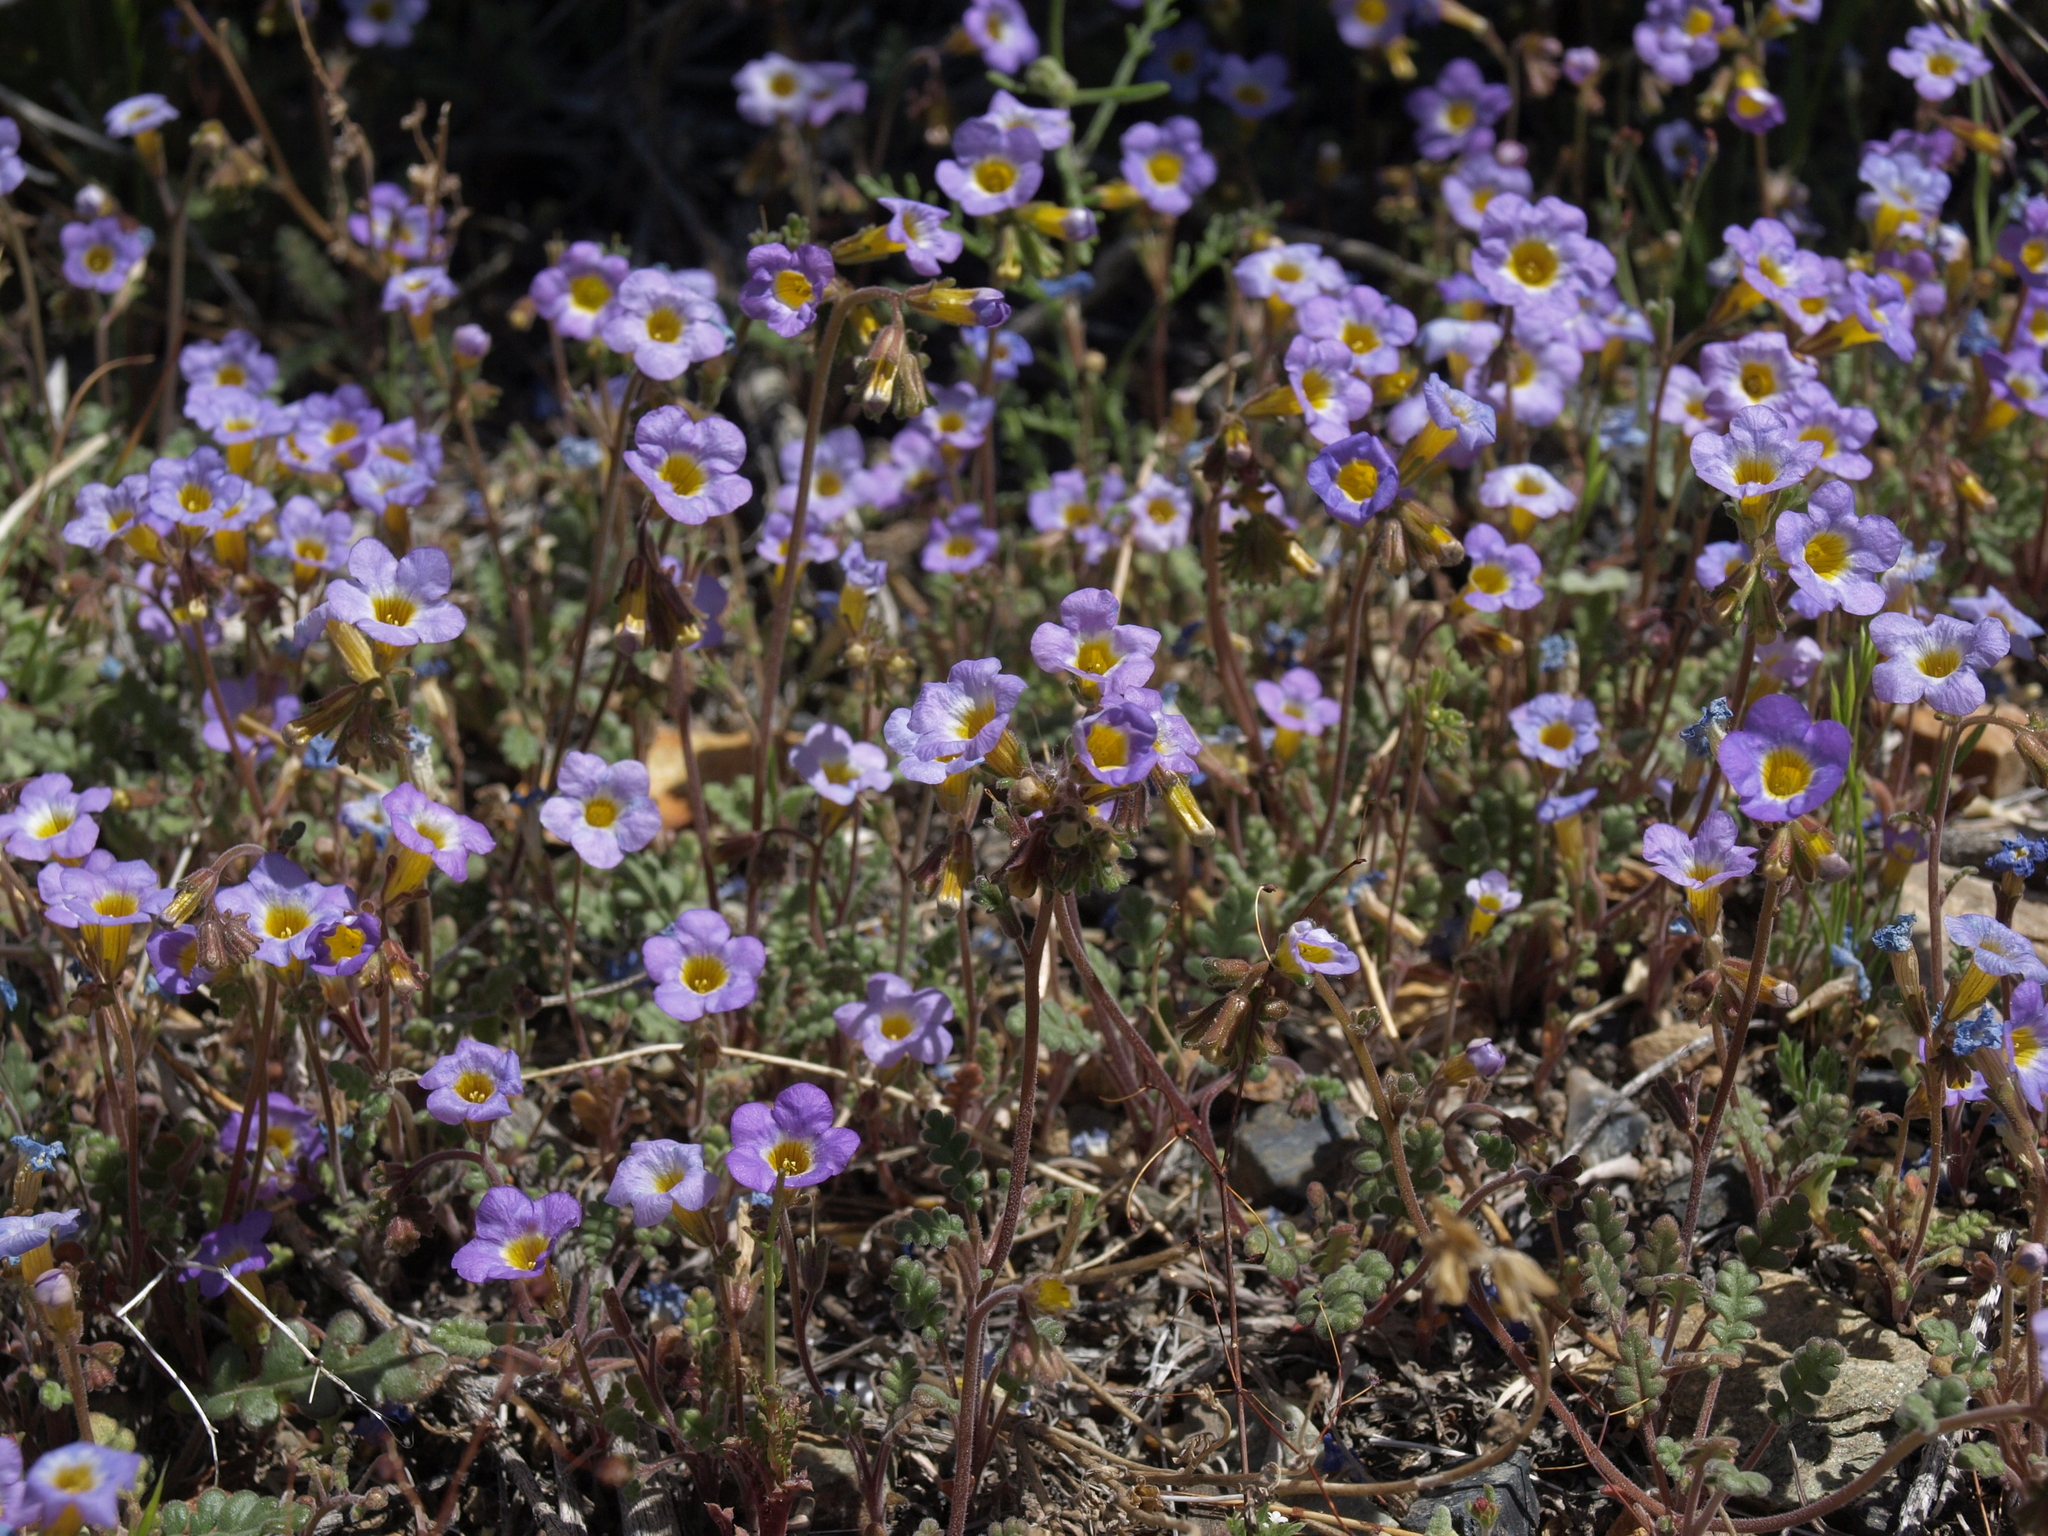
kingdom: Plantae
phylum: Tracheophyta
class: Magnoliopsida
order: Boraginales
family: Hydrophyllaceae
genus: Phacelia
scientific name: Phacelia fremontii
